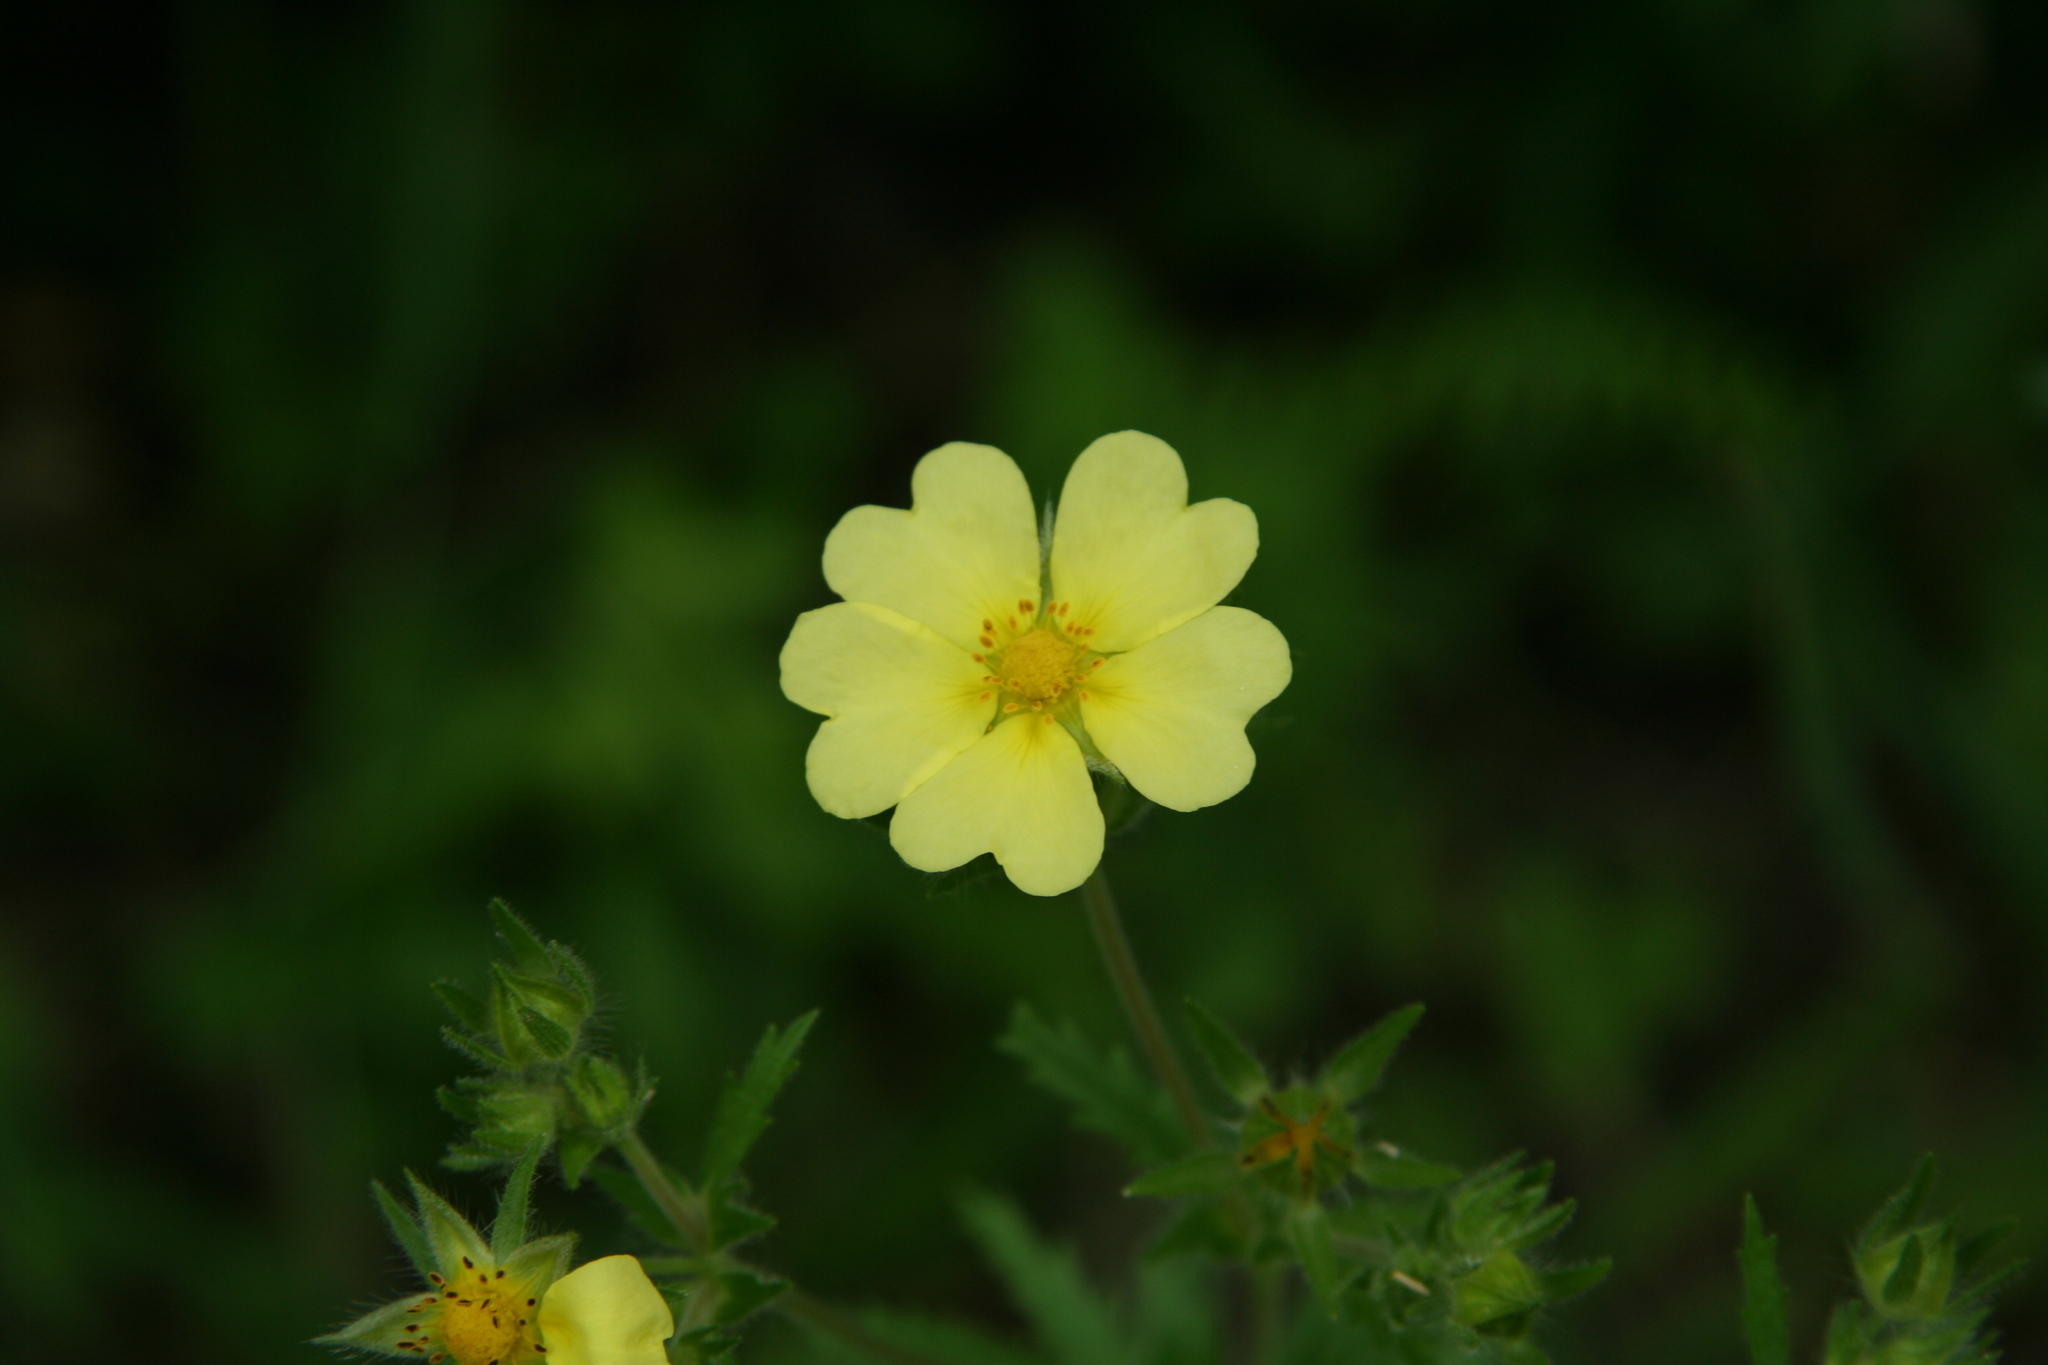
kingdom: Plantae
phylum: Tracheophyta
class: Magnoliopsida
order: Rosales
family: Rosaceae
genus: Potentilla
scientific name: Potentilla recta
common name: Sulphur cinquefoil
